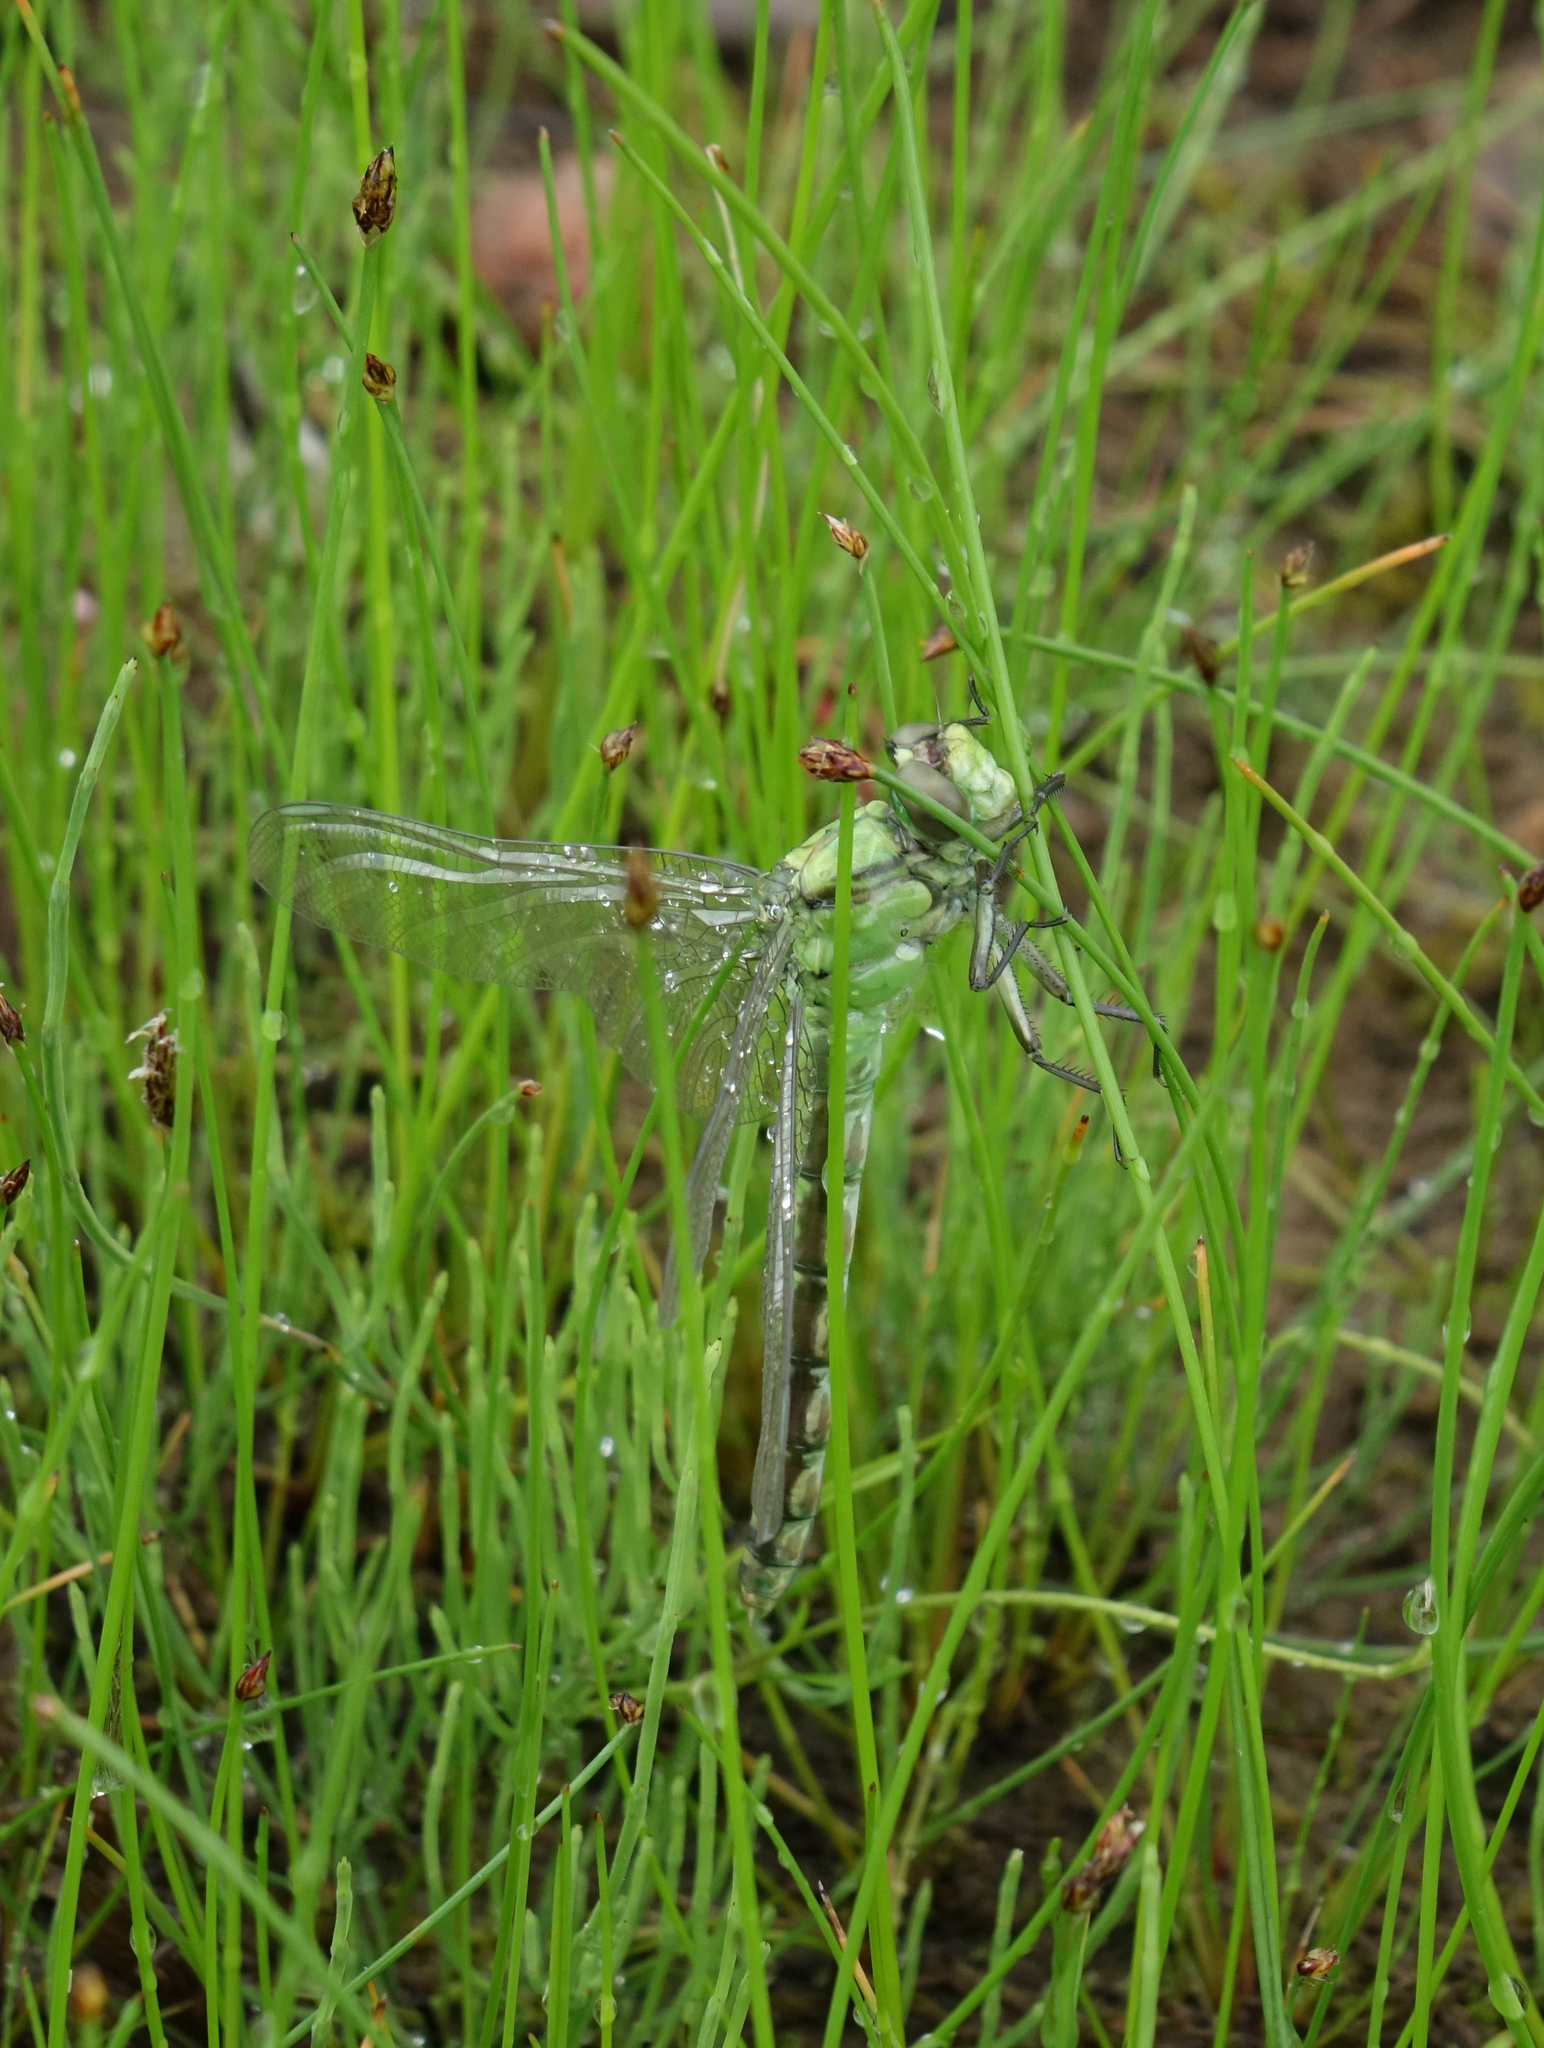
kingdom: Animalia
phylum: Arthropoda
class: Insecta
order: Odonata
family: Gomphidae
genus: Ophiogomphus
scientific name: Ophiogomphus obscurus
